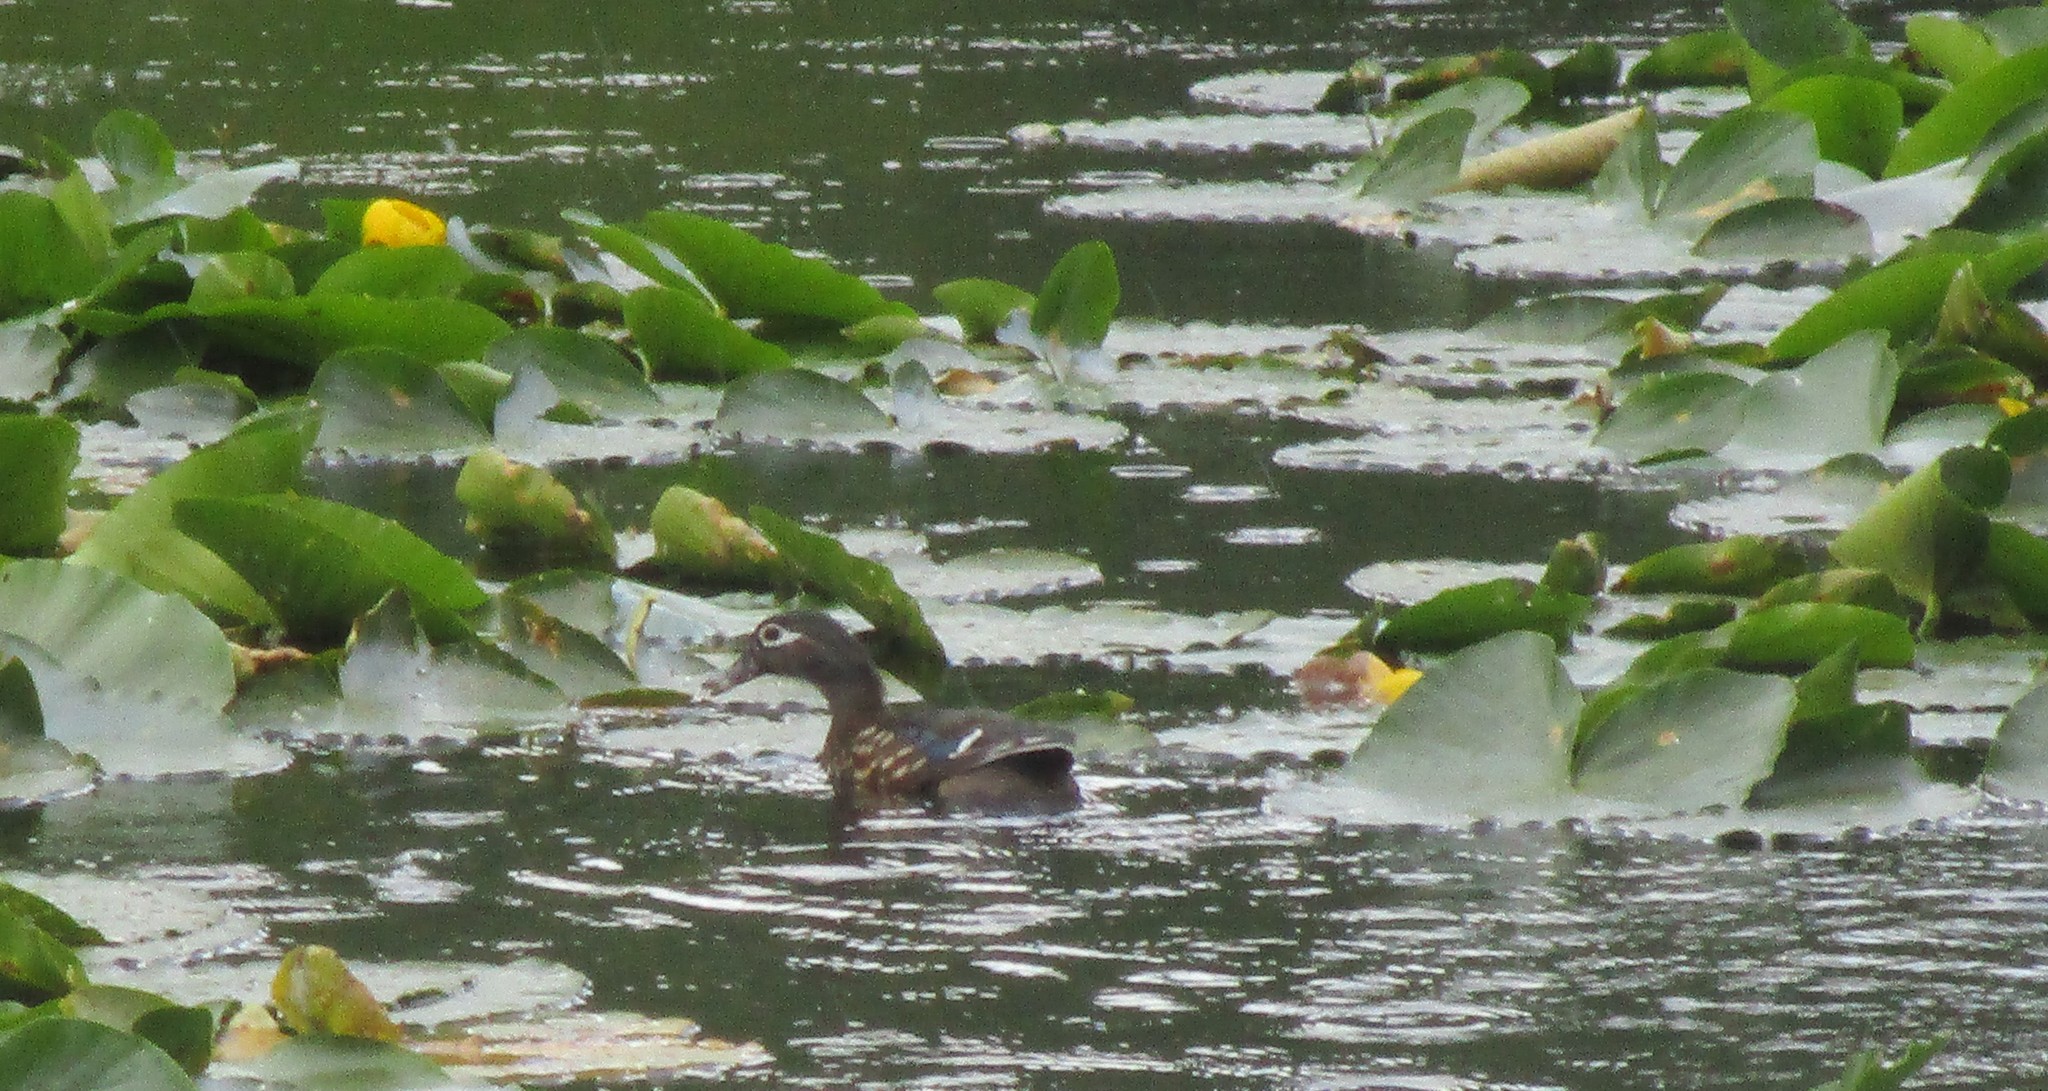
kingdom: Animalia
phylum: Chordata
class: Aves
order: Anseriformes
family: Anatidae
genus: Aix
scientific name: Aix sponsa
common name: Wood duck
